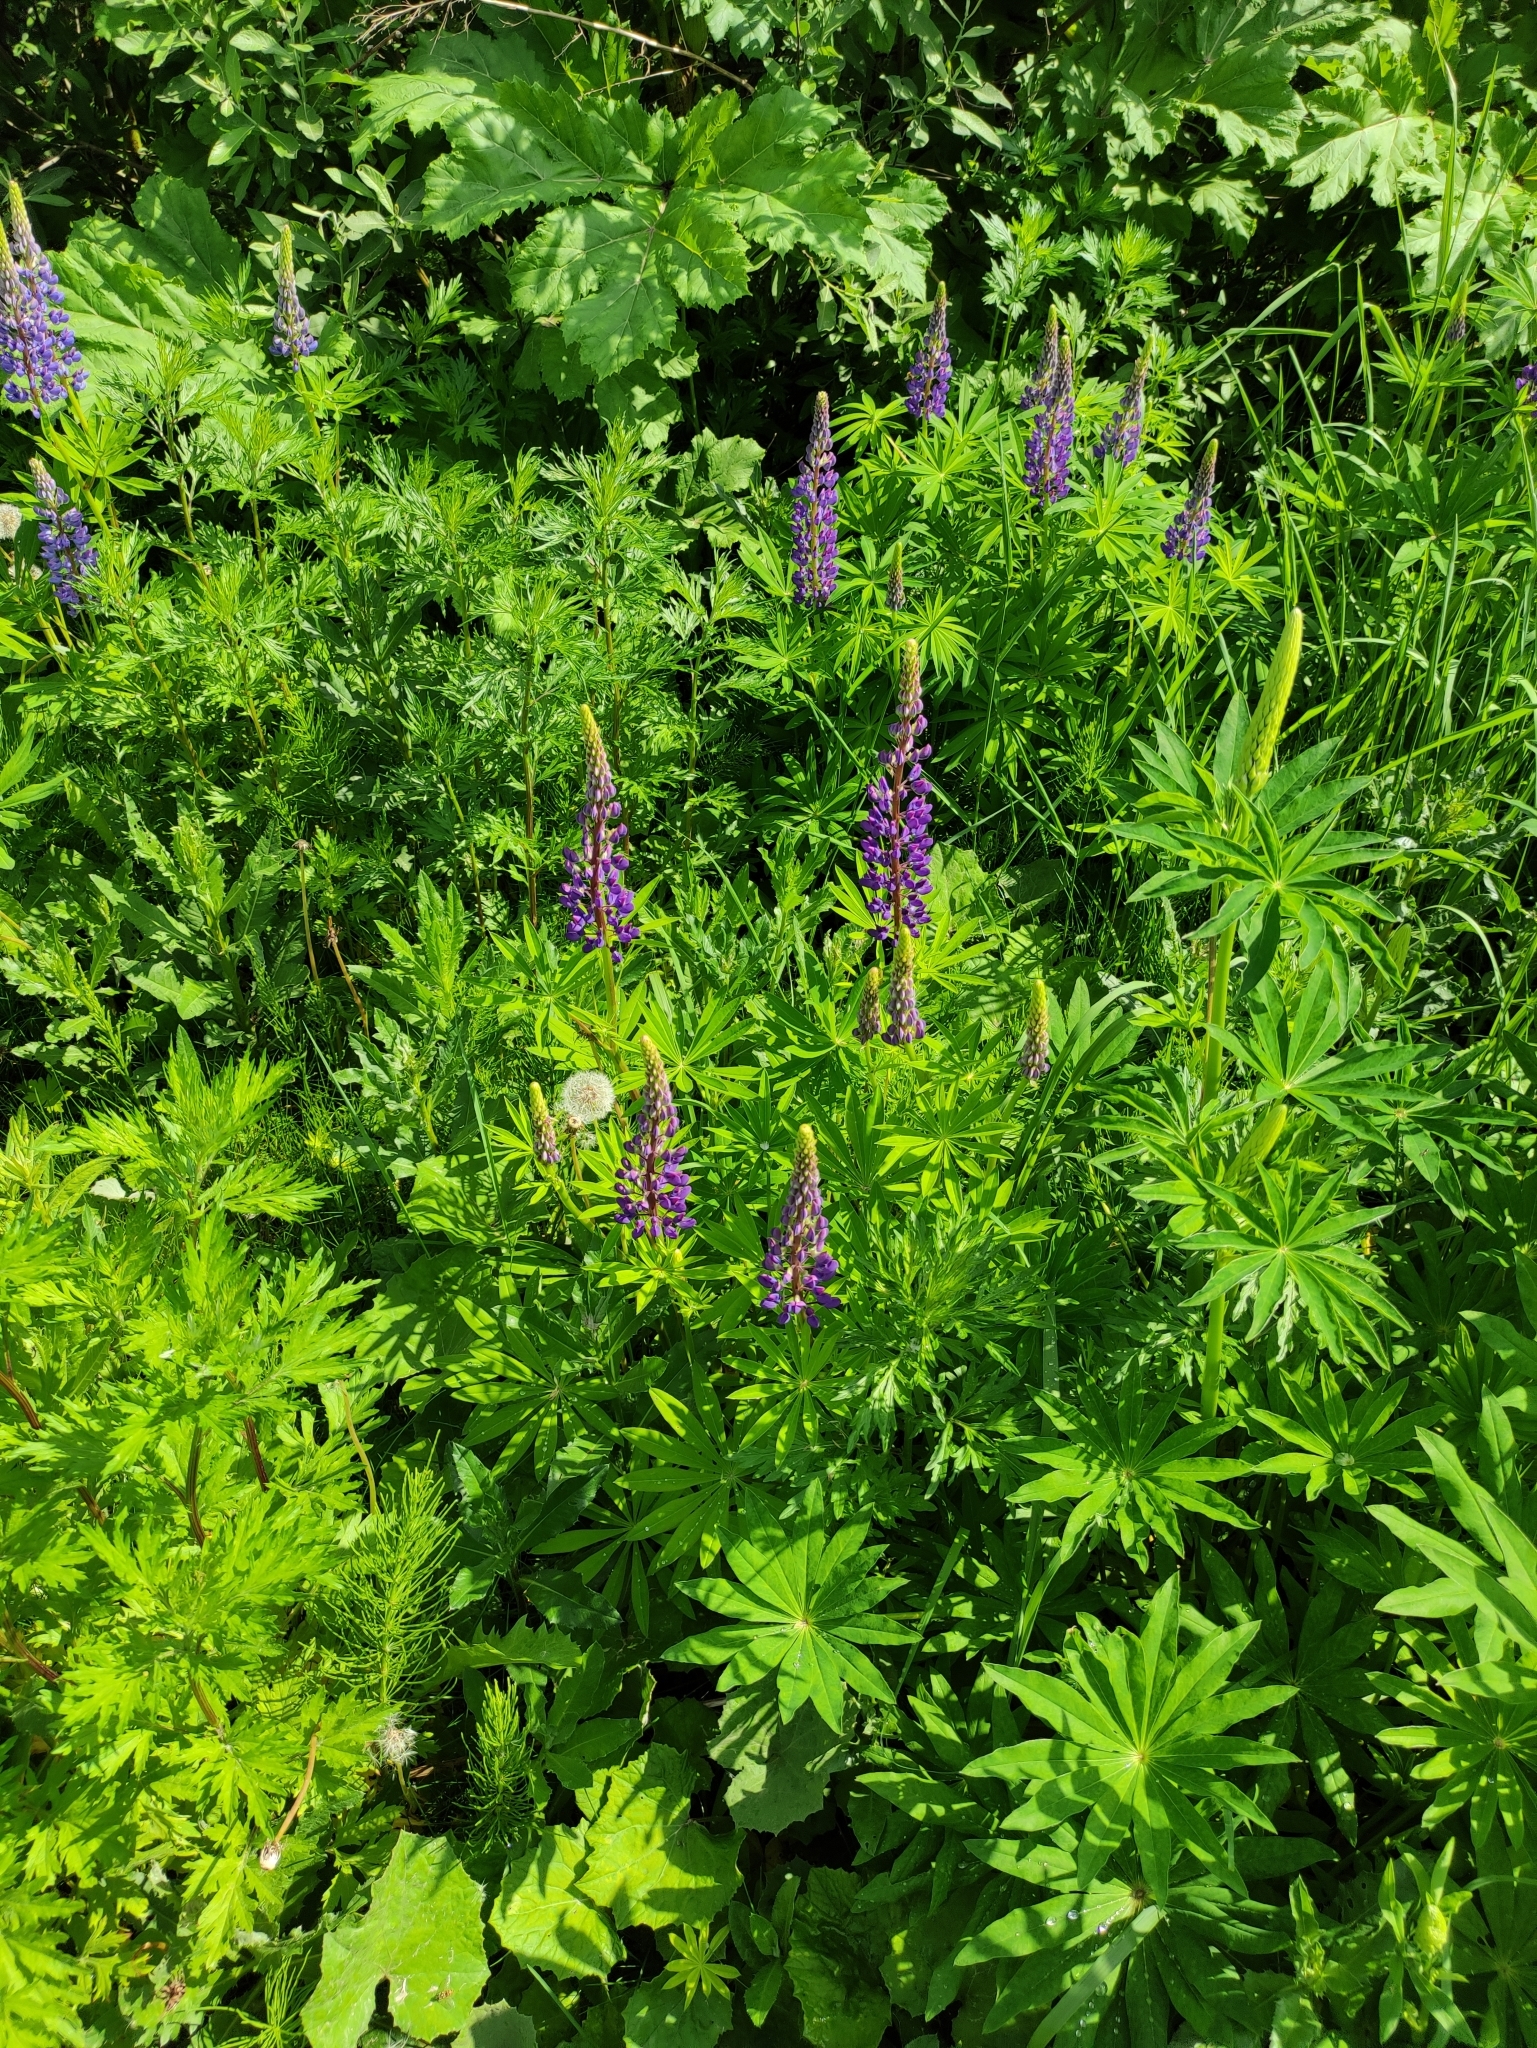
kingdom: Plantae
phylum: Tracheophyta
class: Magnoliopsida
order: Fabales
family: Fabaceae
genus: Lupinus
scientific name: Lupinus polyphyllus
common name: Garden lupin
